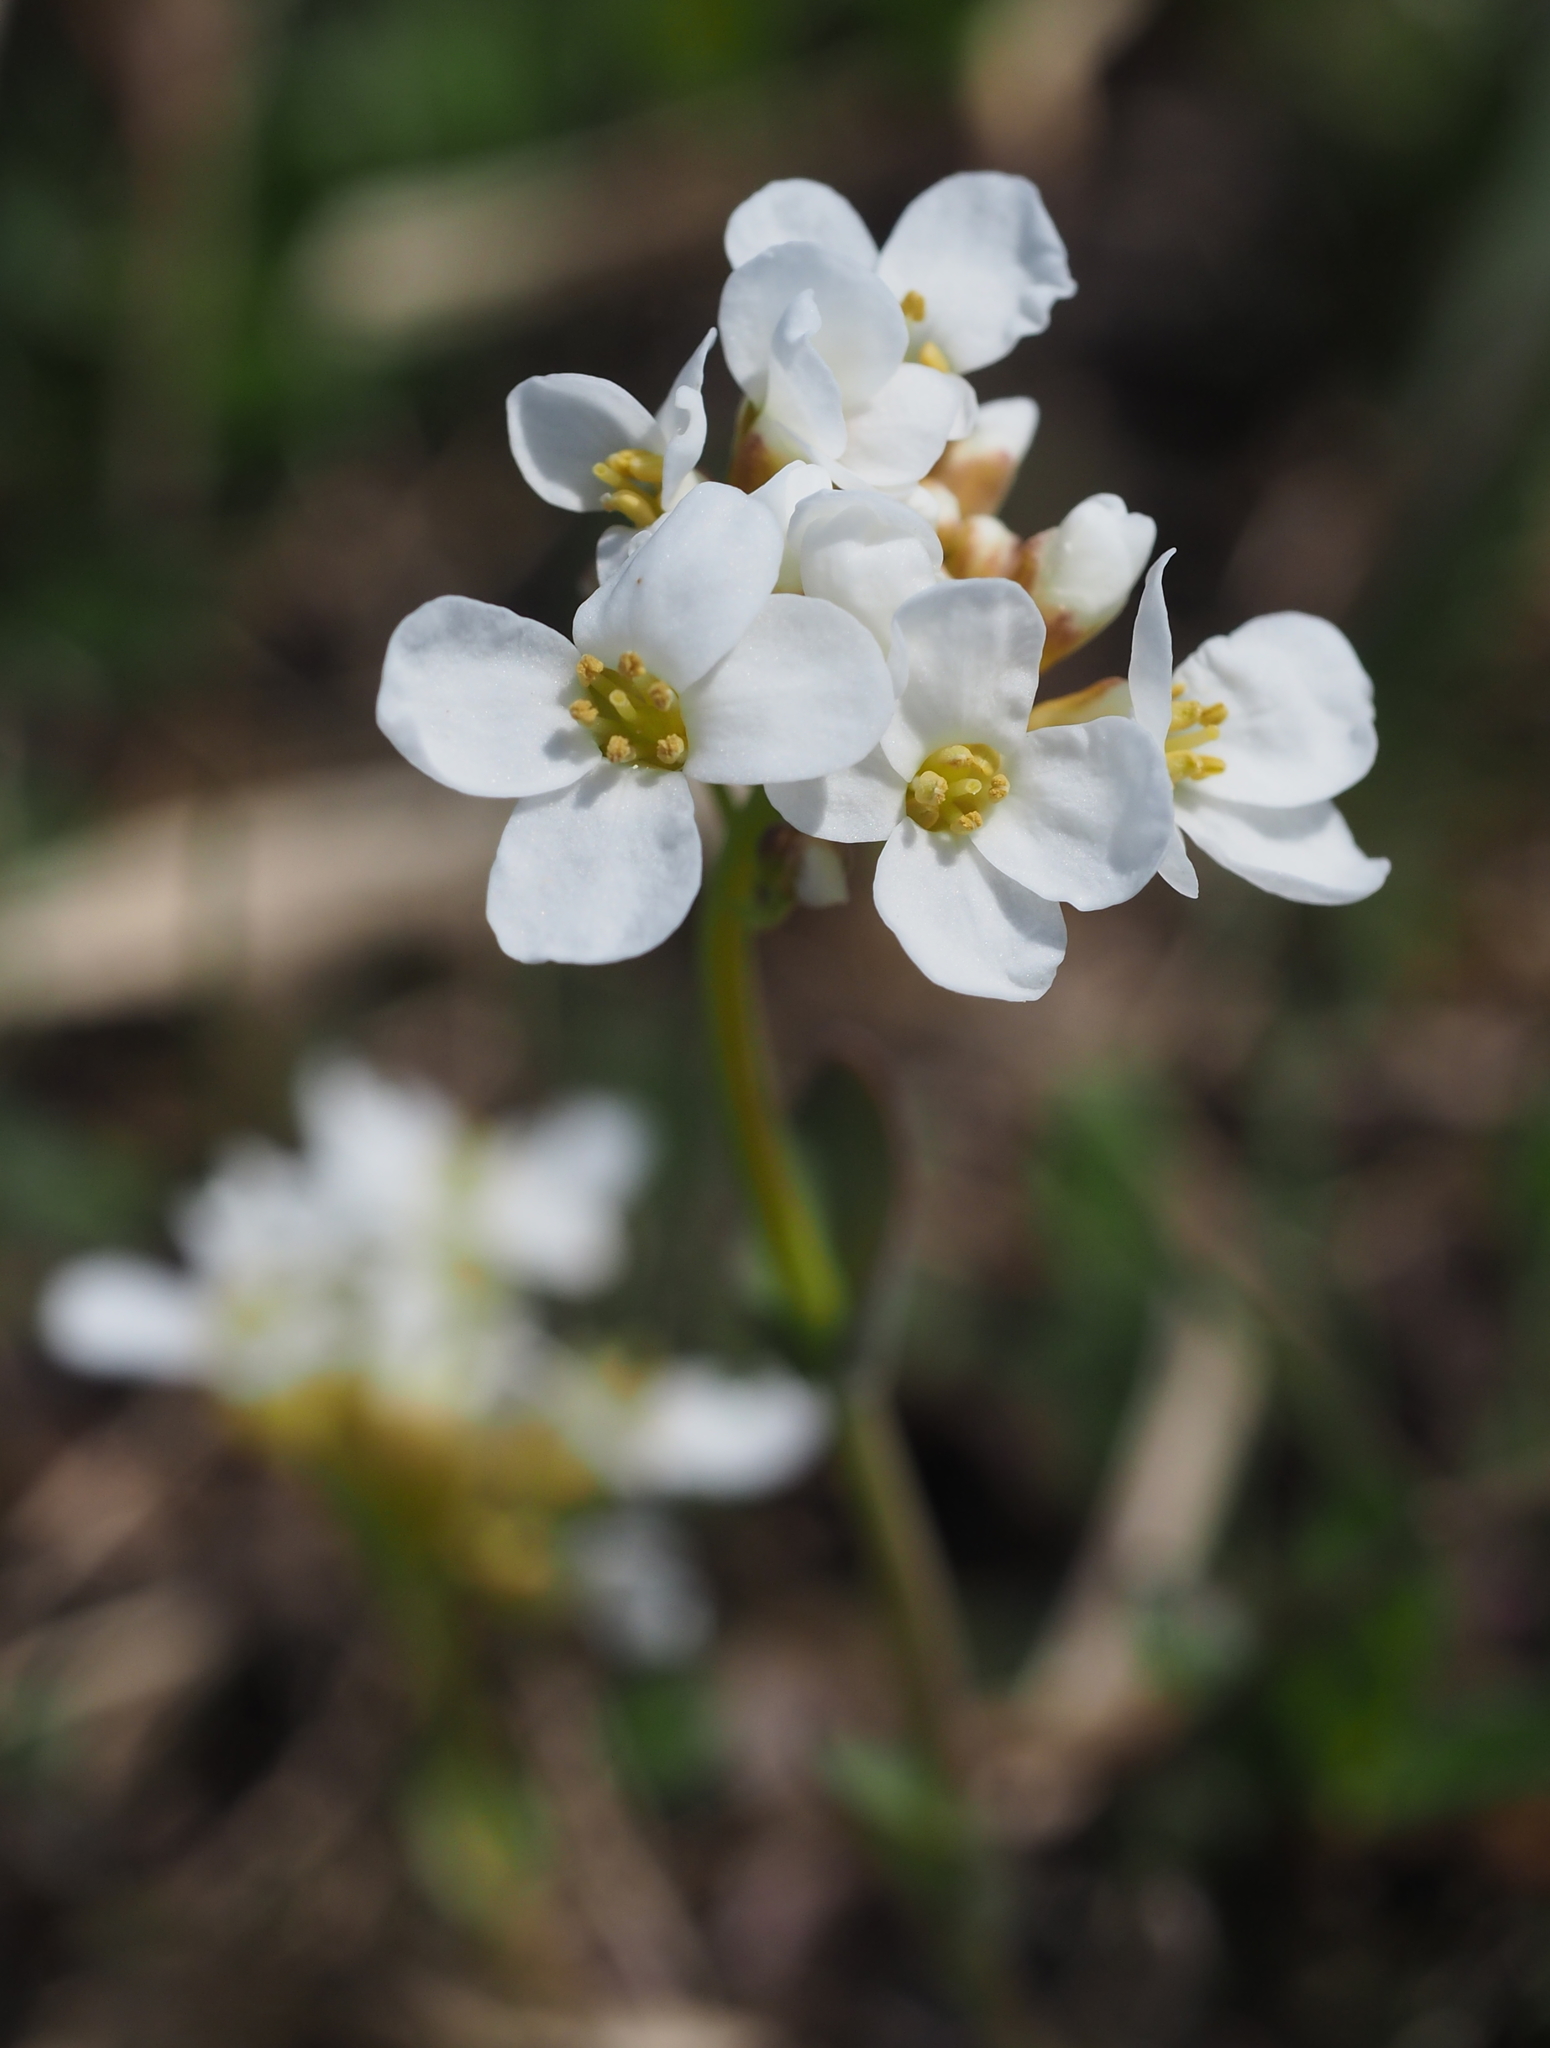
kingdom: Plantae
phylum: Tracheophyta
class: Magnoliopsida
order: Brassicales
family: Brassicaceae
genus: Noccaea
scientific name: Noccaea alpestris
